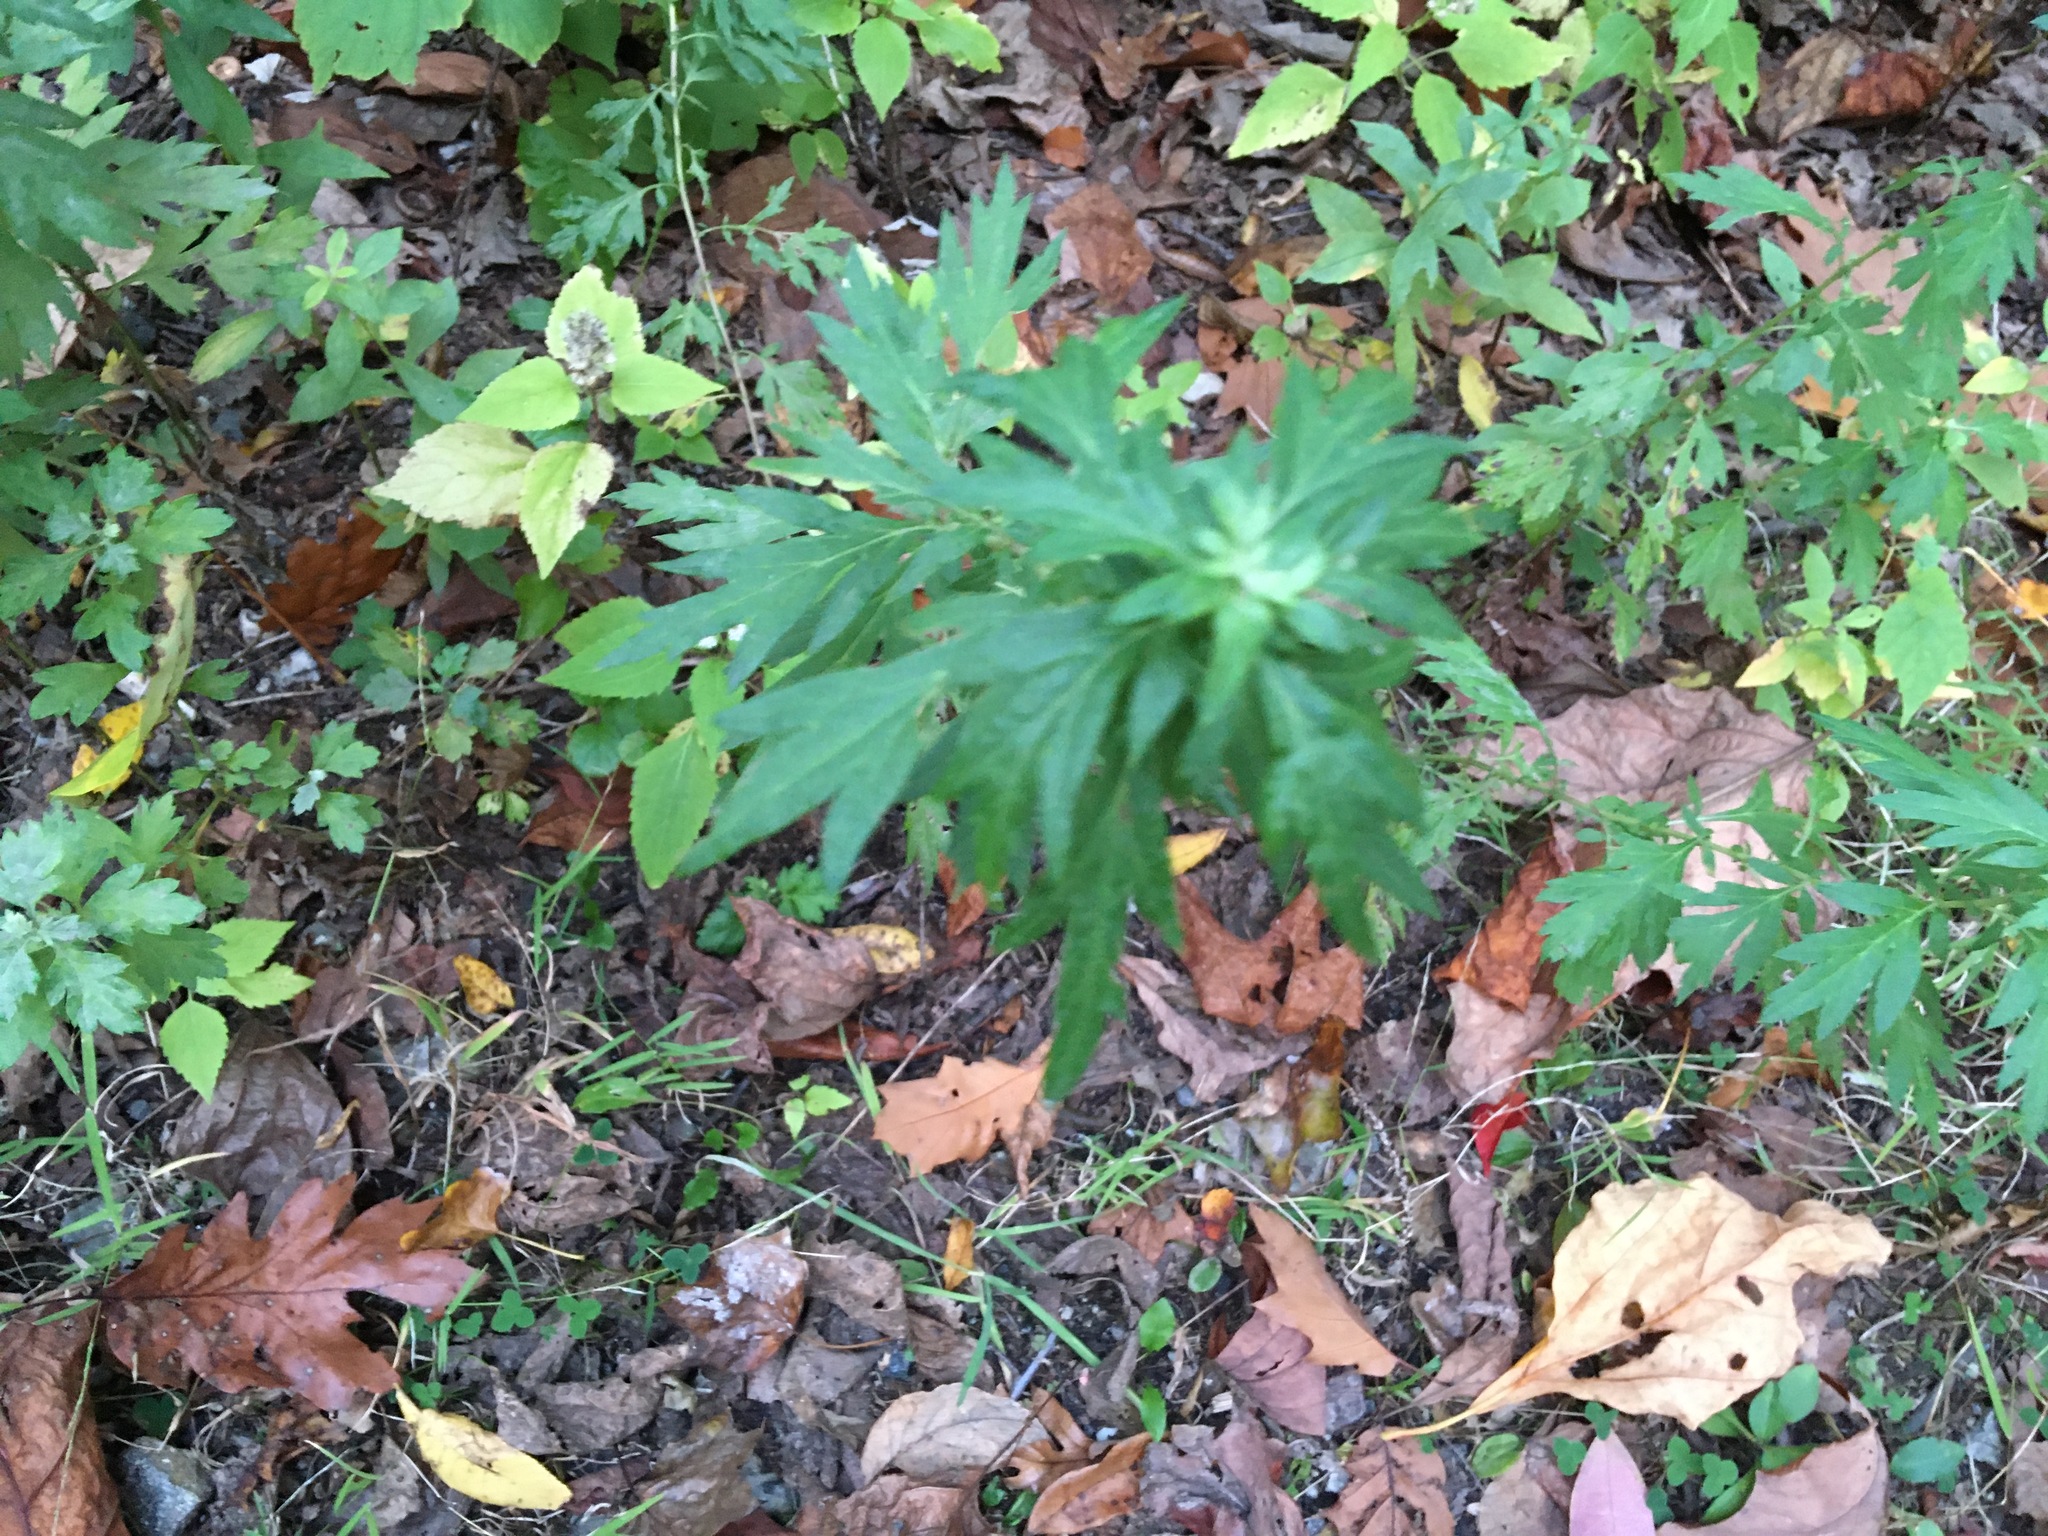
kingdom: Plantae
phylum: Tracheophyta
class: Magnoliopsida
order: Asterales
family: Asteraceae
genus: Artemisia
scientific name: Artemisia vulgaris
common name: Mugwort
